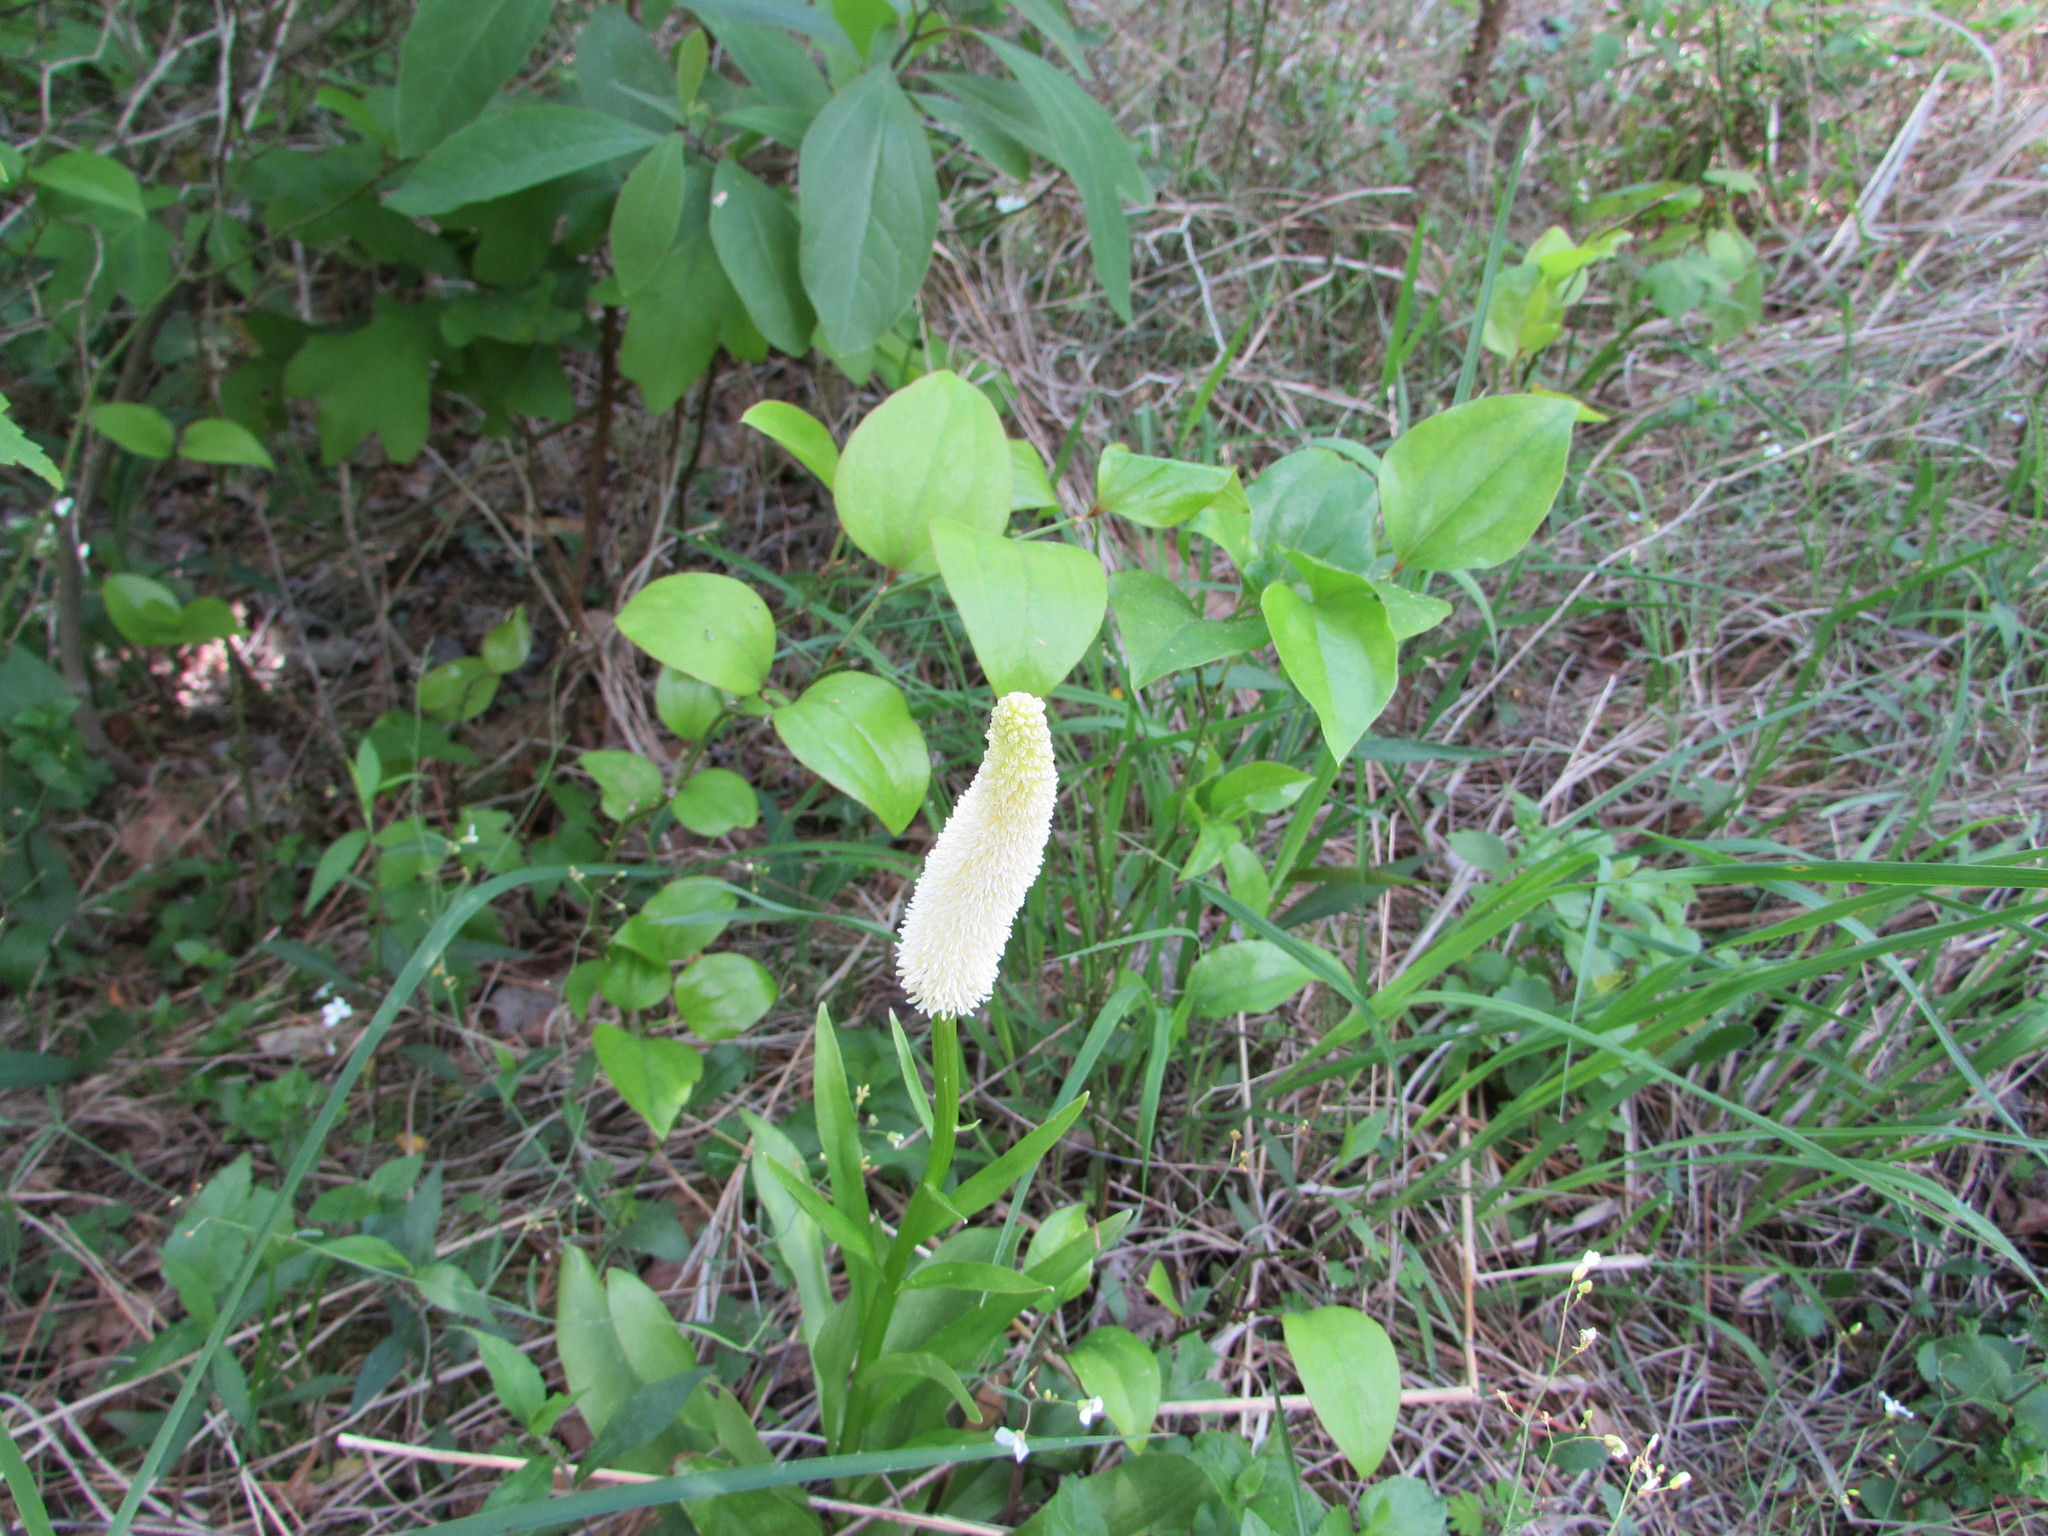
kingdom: Plantae
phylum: Tracheophyta
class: Liliopsida
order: Liliales
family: Melanthiaceae
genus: Chamaelirium
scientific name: Chamaelirium luteum
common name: Fairy-wand
